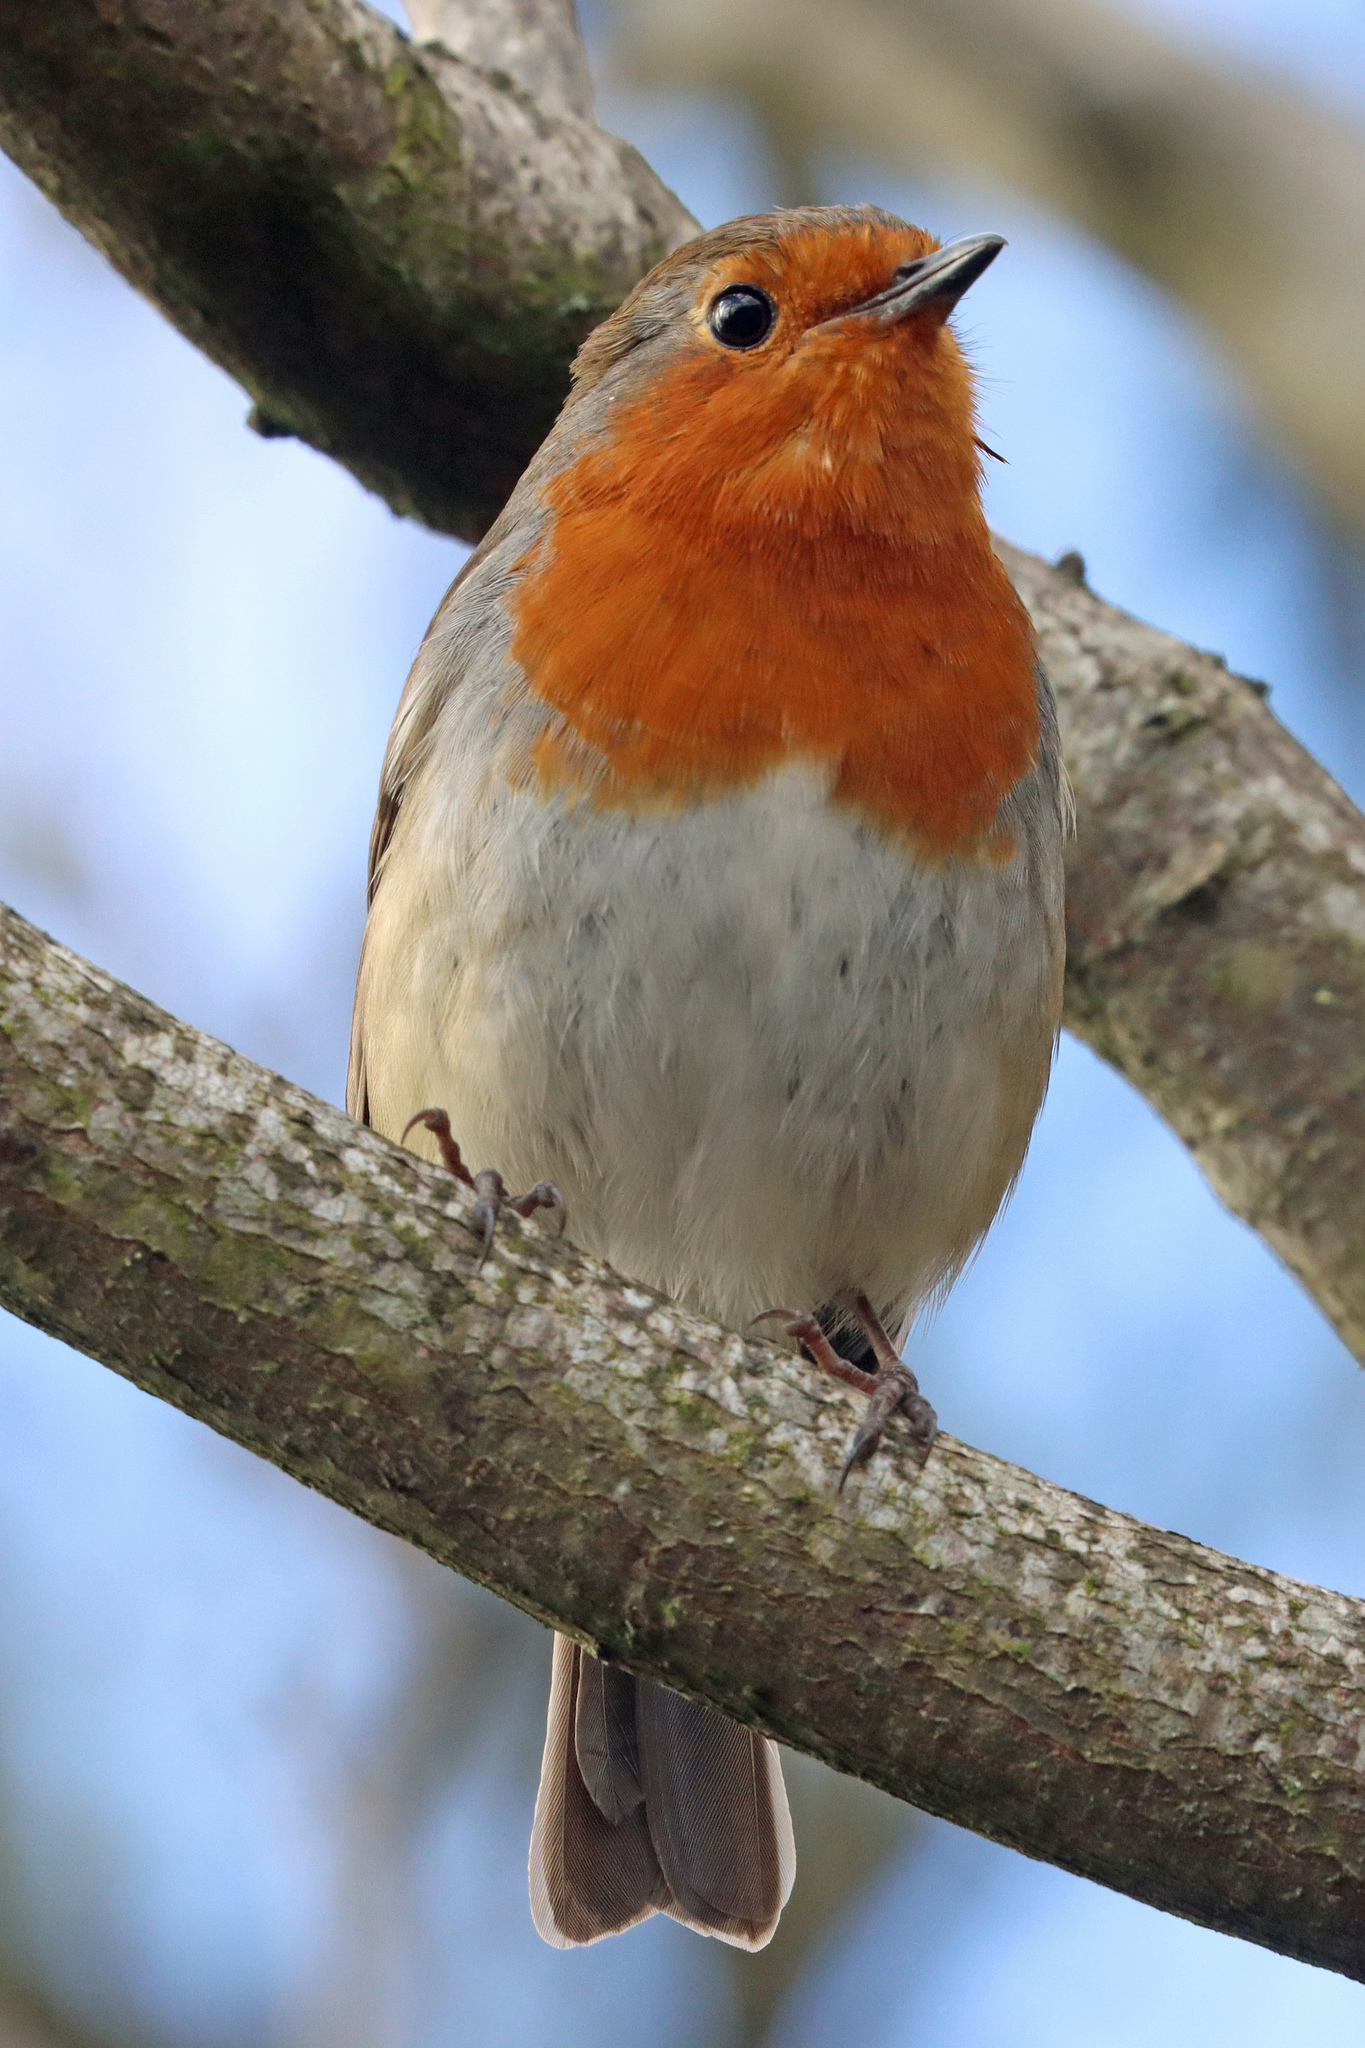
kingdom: Animalia
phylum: Chordata
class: Aves
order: Passeriformes
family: Muscicapidae
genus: Erithacus
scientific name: Erithacus rubecula
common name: European robin
